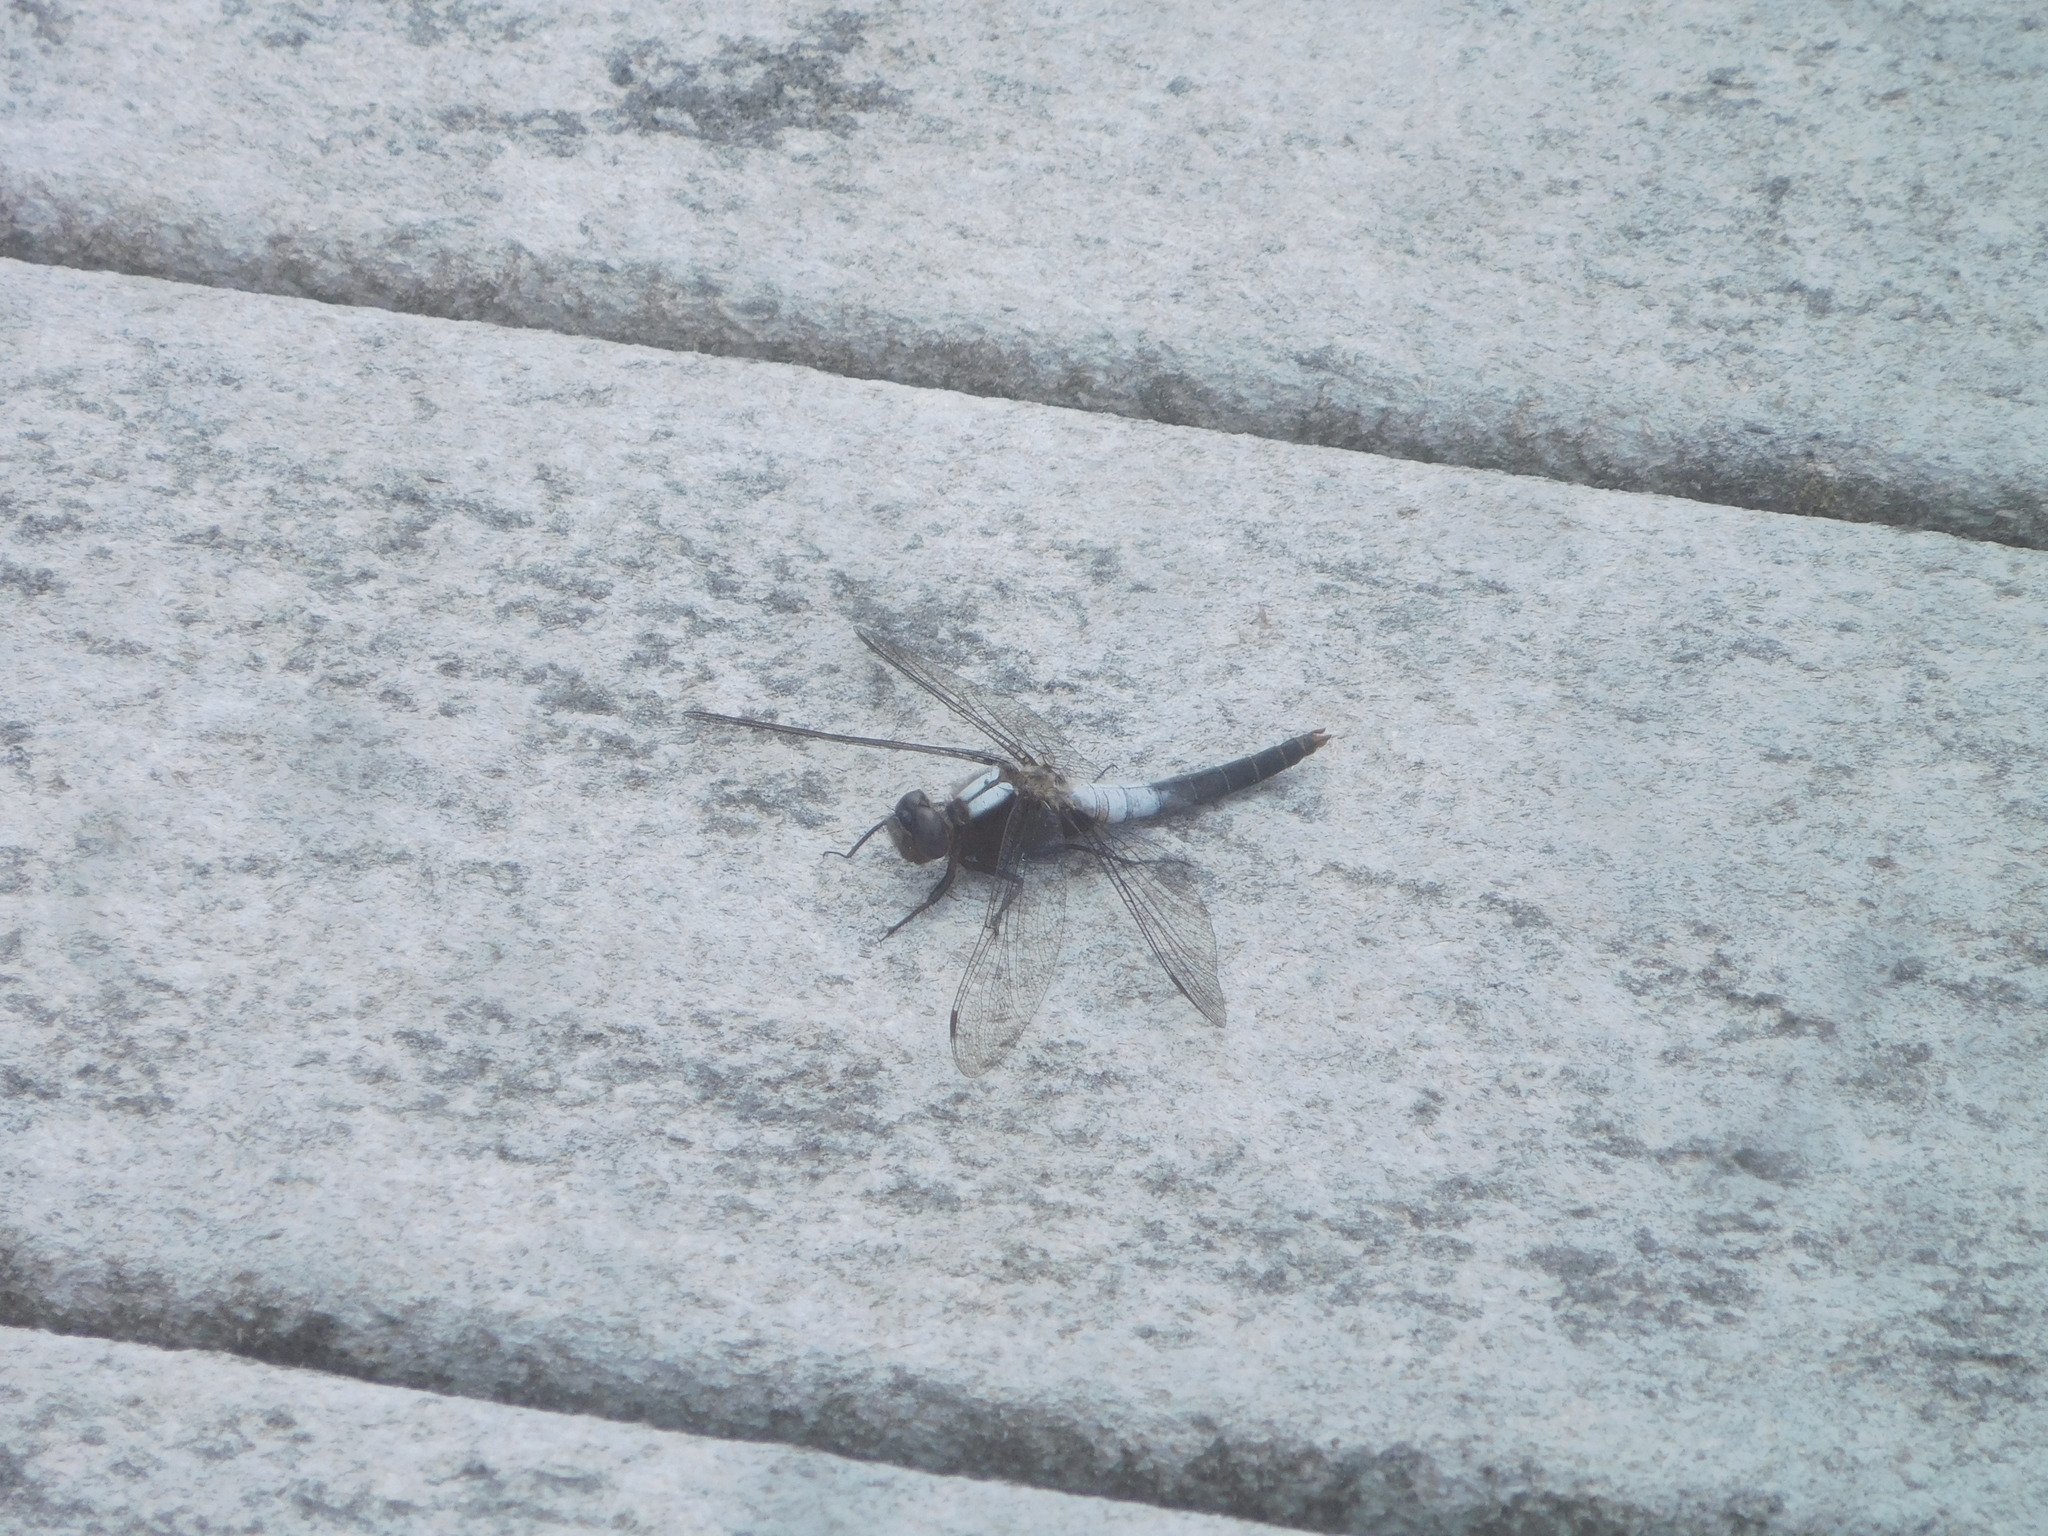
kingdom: Animalia
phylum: Arthropoda
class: Insecta
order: Odonata
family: Libellulidae
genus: Ladona
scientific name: Ladona julia
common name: Chalk-fronted corporal
